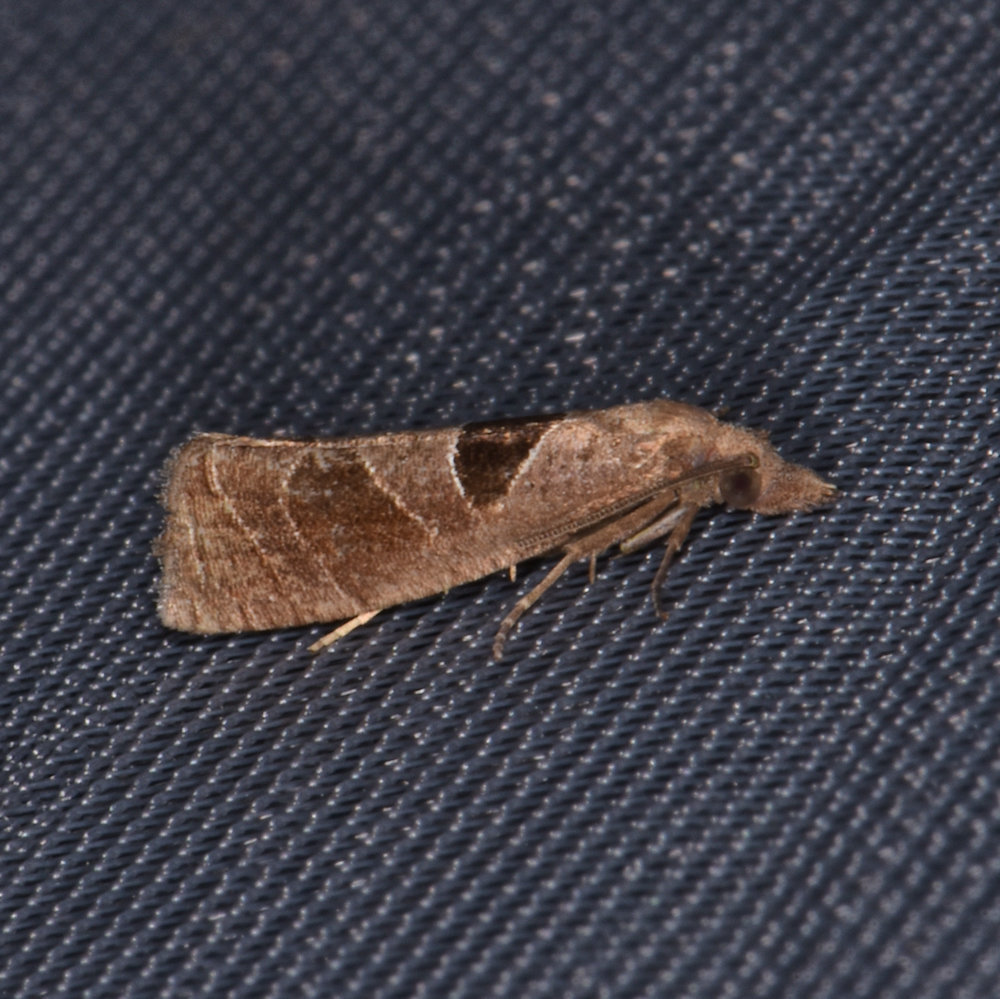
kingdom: Animalia
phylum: Arthropoda
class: Insecta
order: Lepidoptera
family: Tortricidae
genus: Pelochrista
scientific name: Pelochrista dorsisignatana
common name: Triangle-backed pelochrista moth
